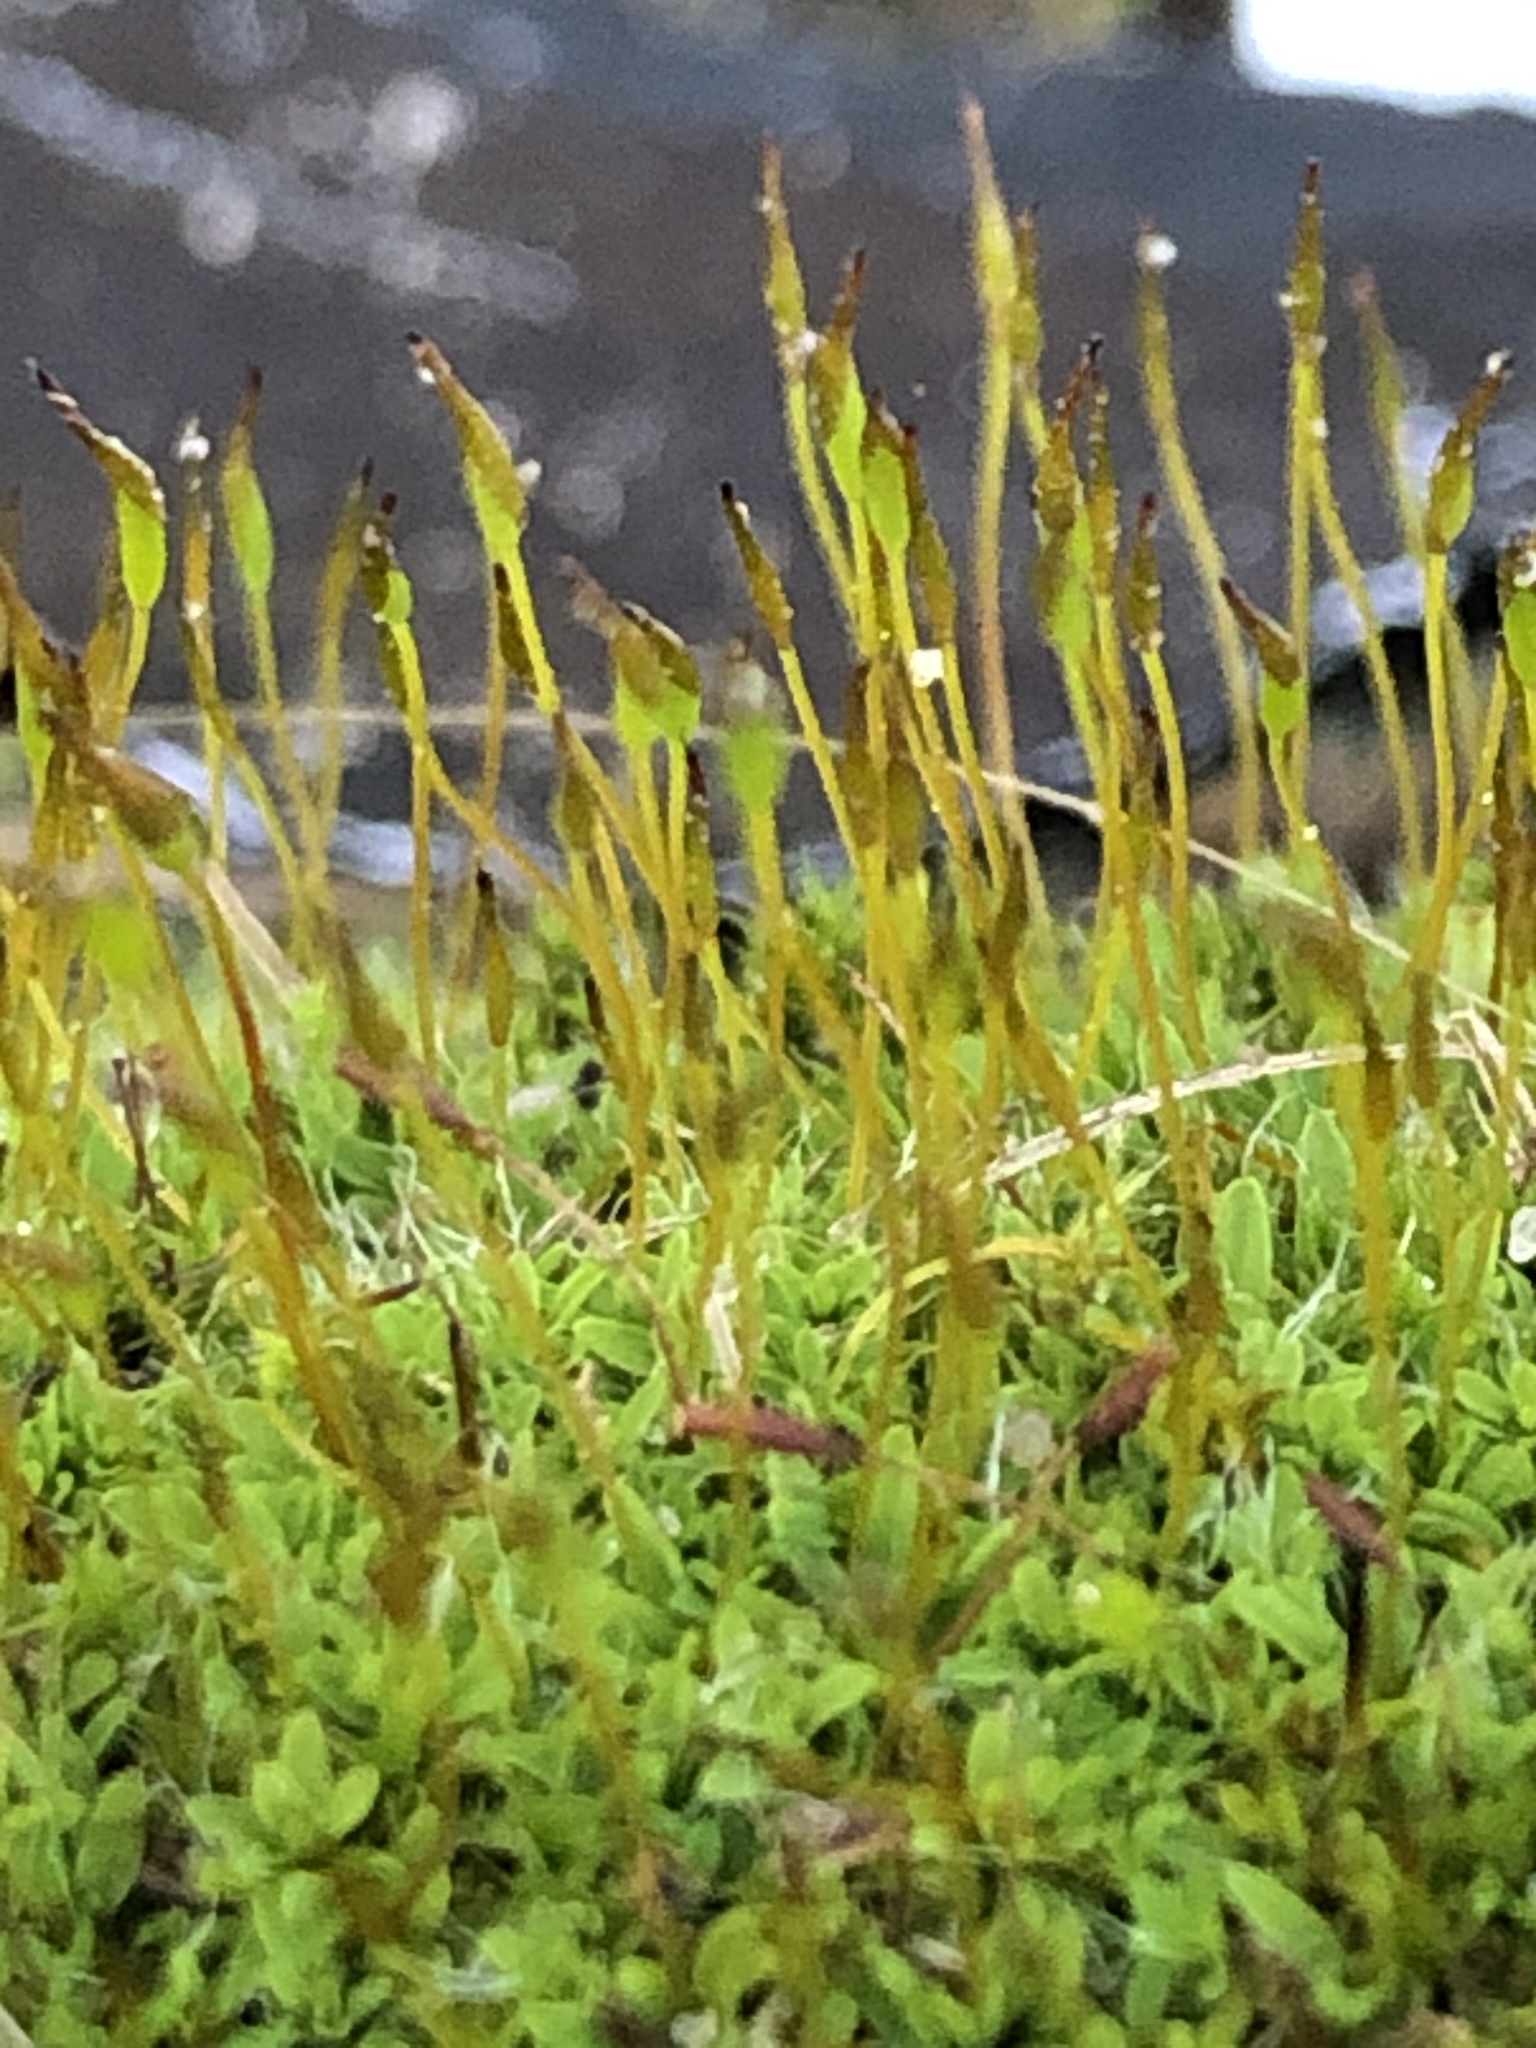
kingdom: Plantae
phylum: Bryophyta
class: Bryopsida
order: Pottiales
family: Pottiaceae
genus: Tortula
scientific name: Tortula muralis
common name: Wall screw-moss
